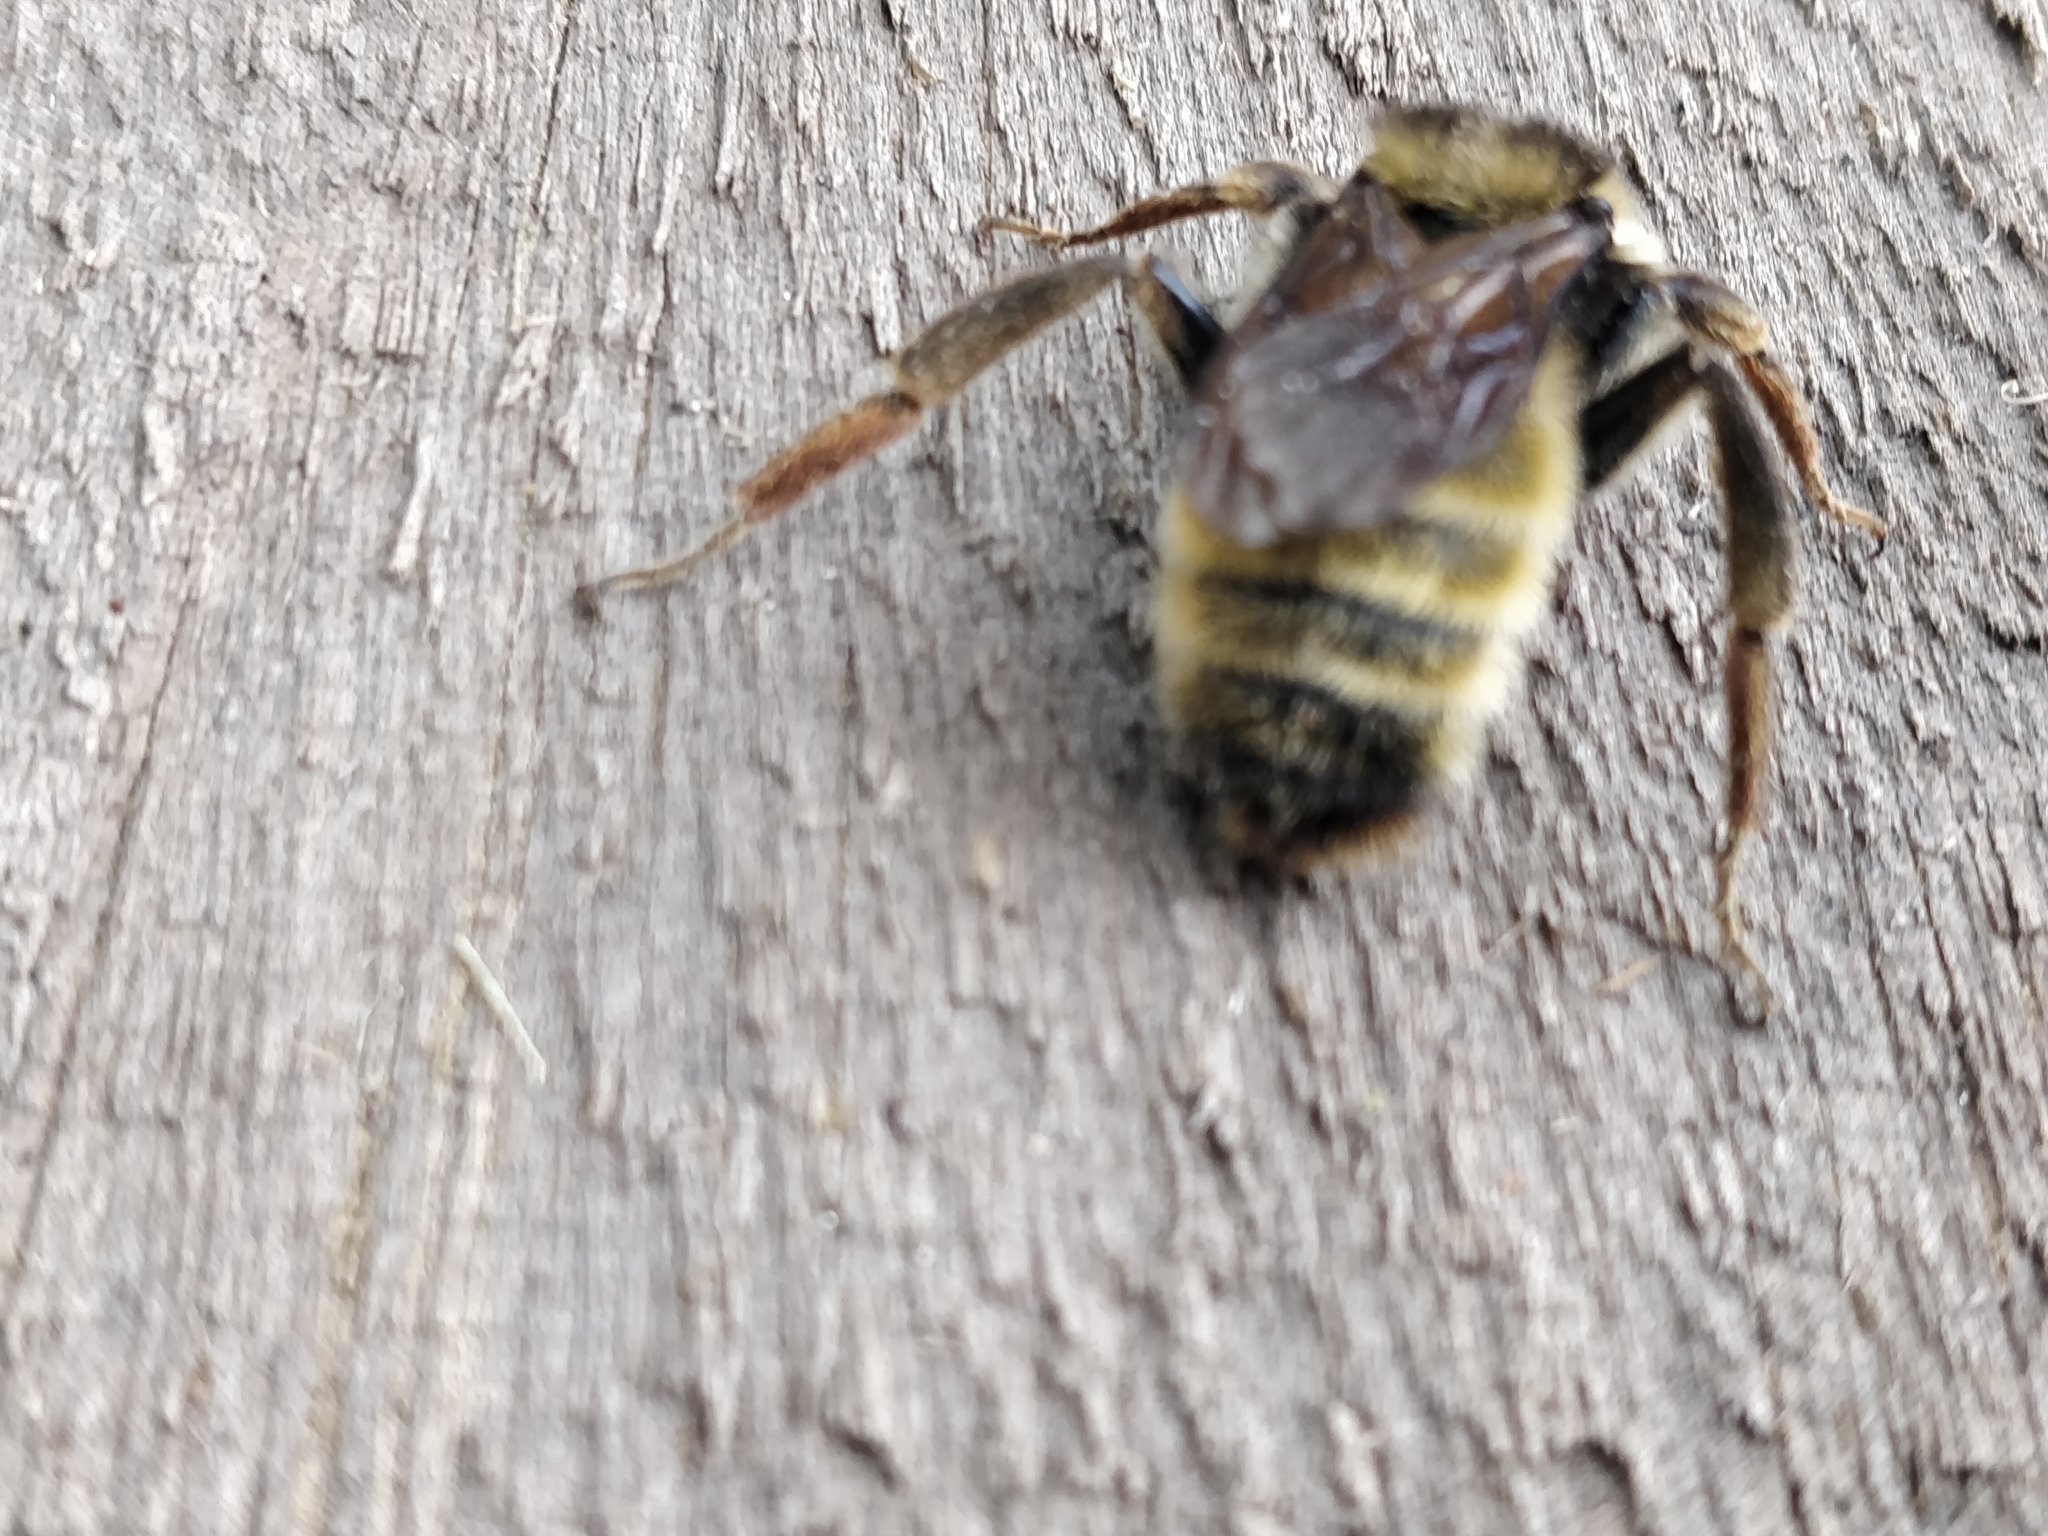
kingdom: Animalia
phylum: Arthropoda
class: Insecta
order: Hymenoptera
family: Apidae
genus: Bombus
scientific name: Bombus pensylvanicus
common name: Bumble bee
